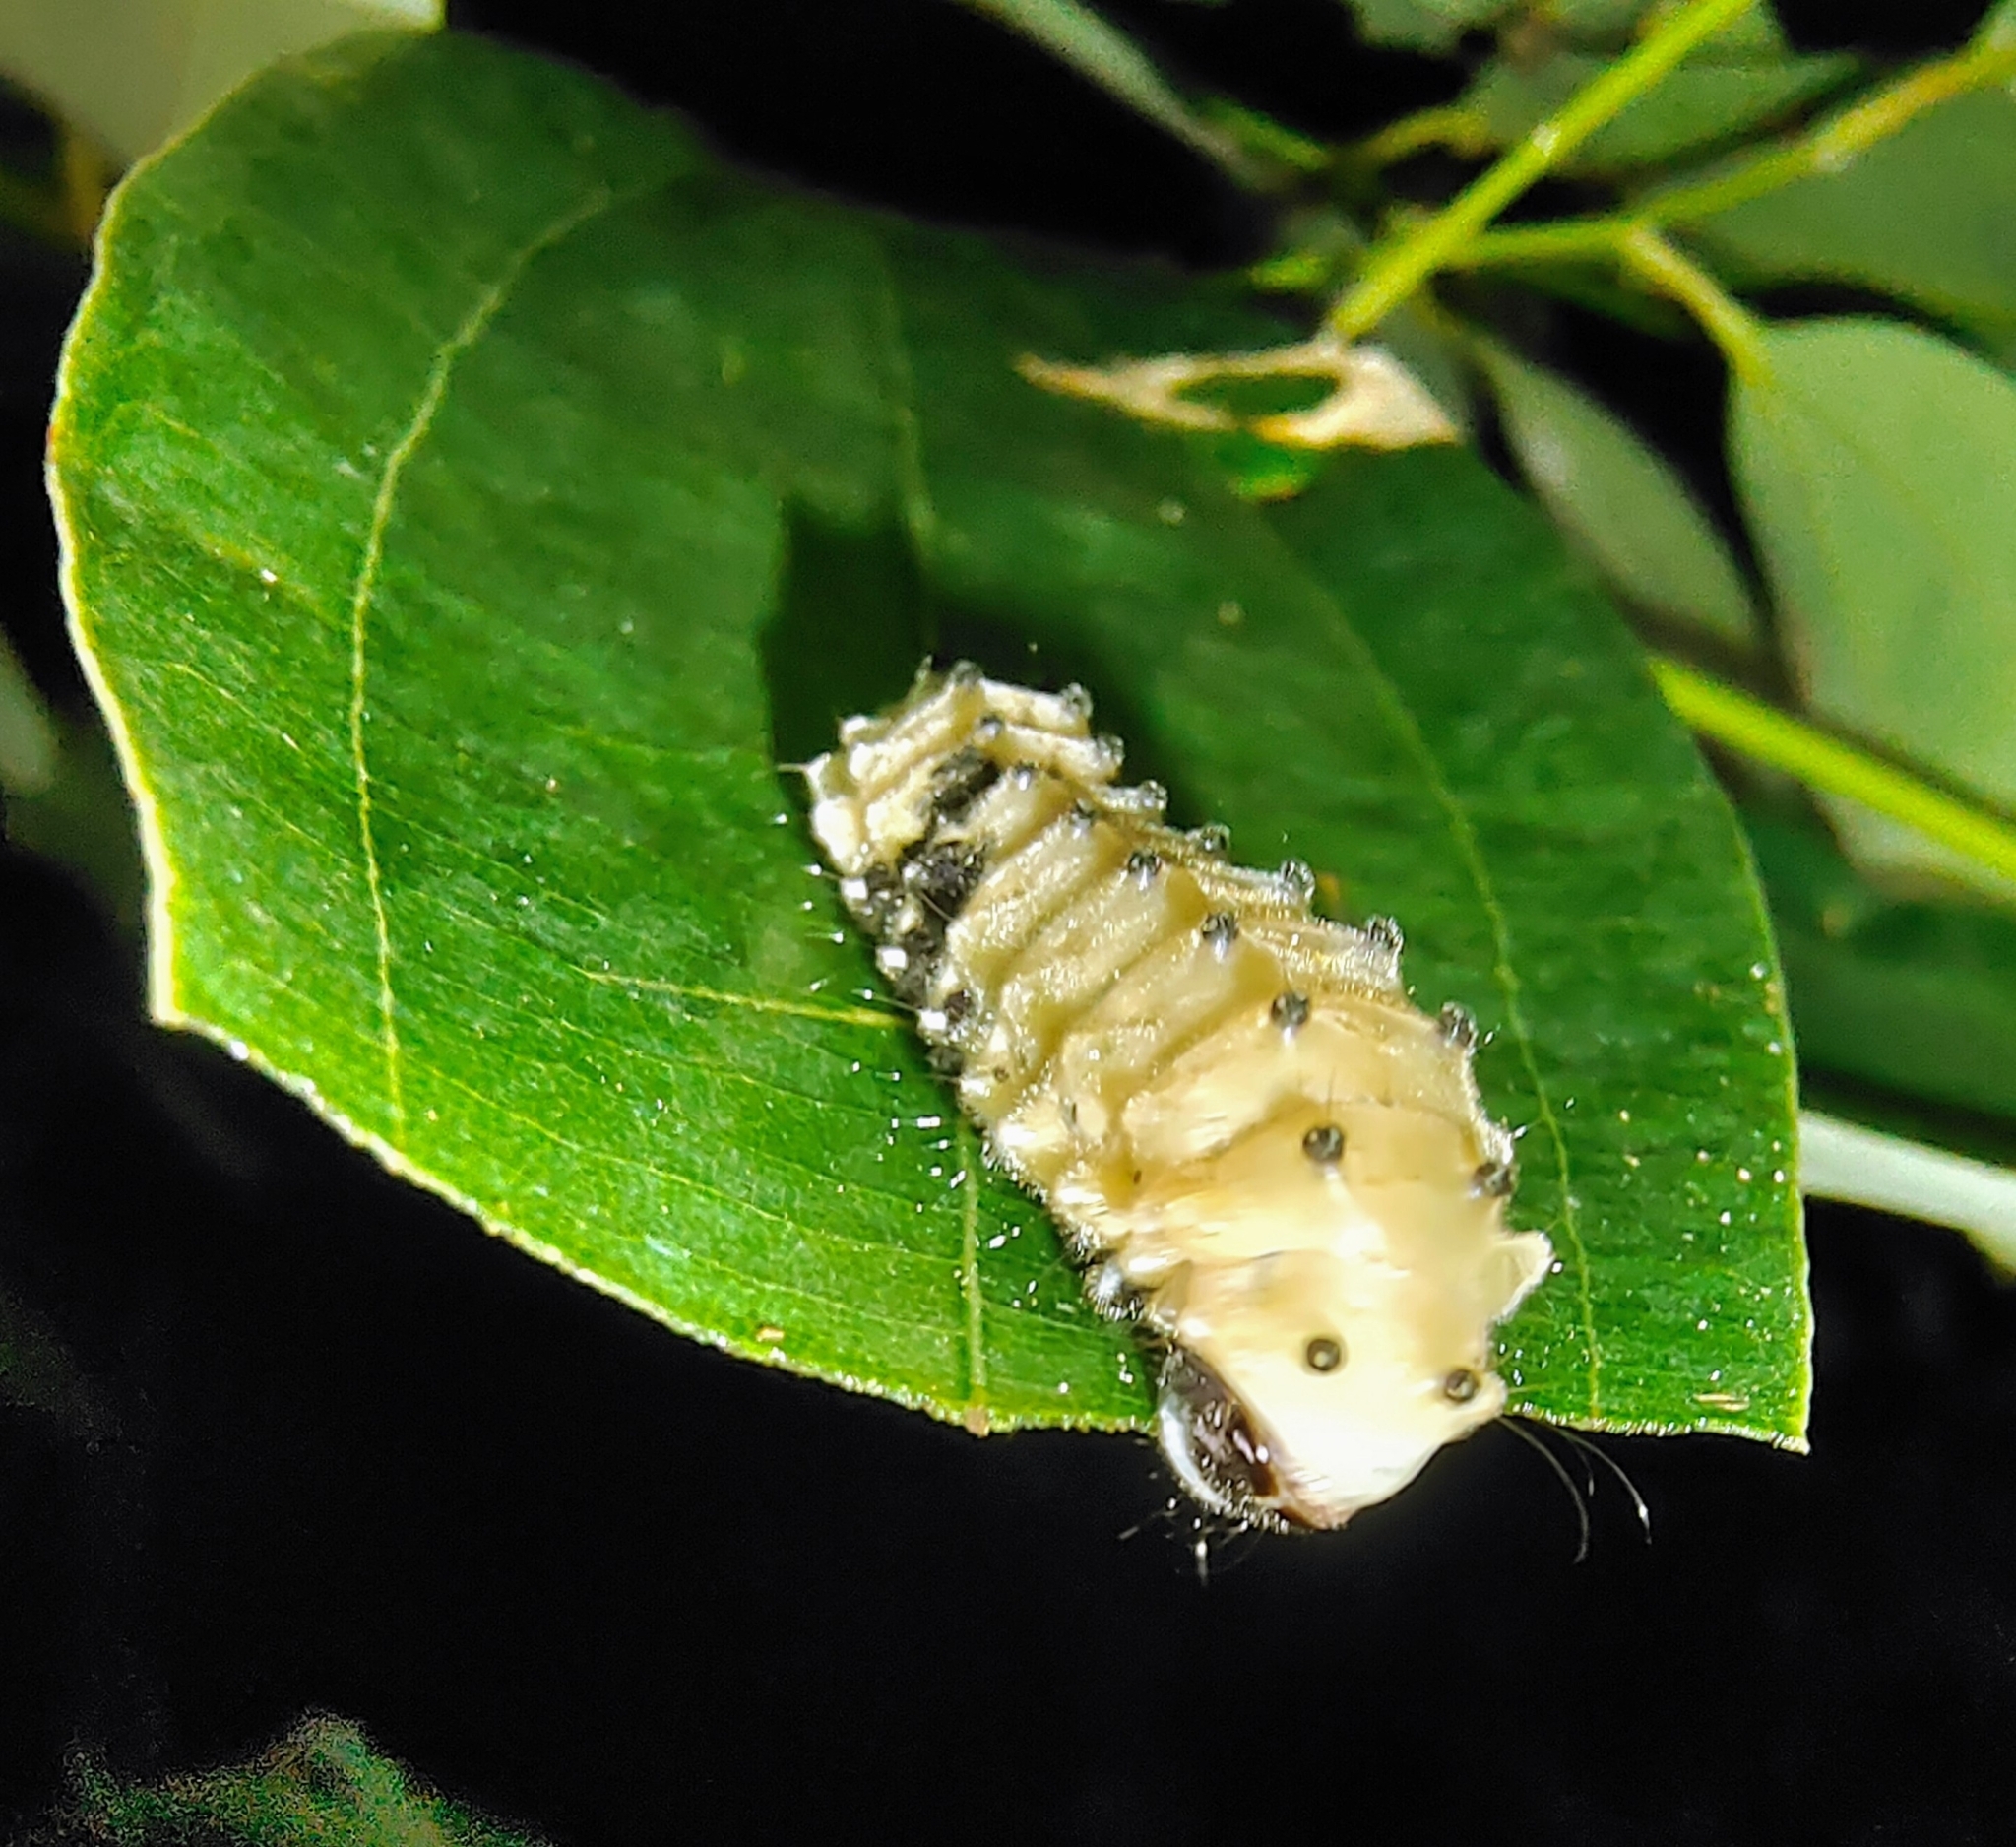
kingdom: Animalia
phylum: Arthropoda
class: Insecta
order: Lepidoptera
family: Zygaenidae
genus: Pompelon
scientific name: Pompelon marginata
